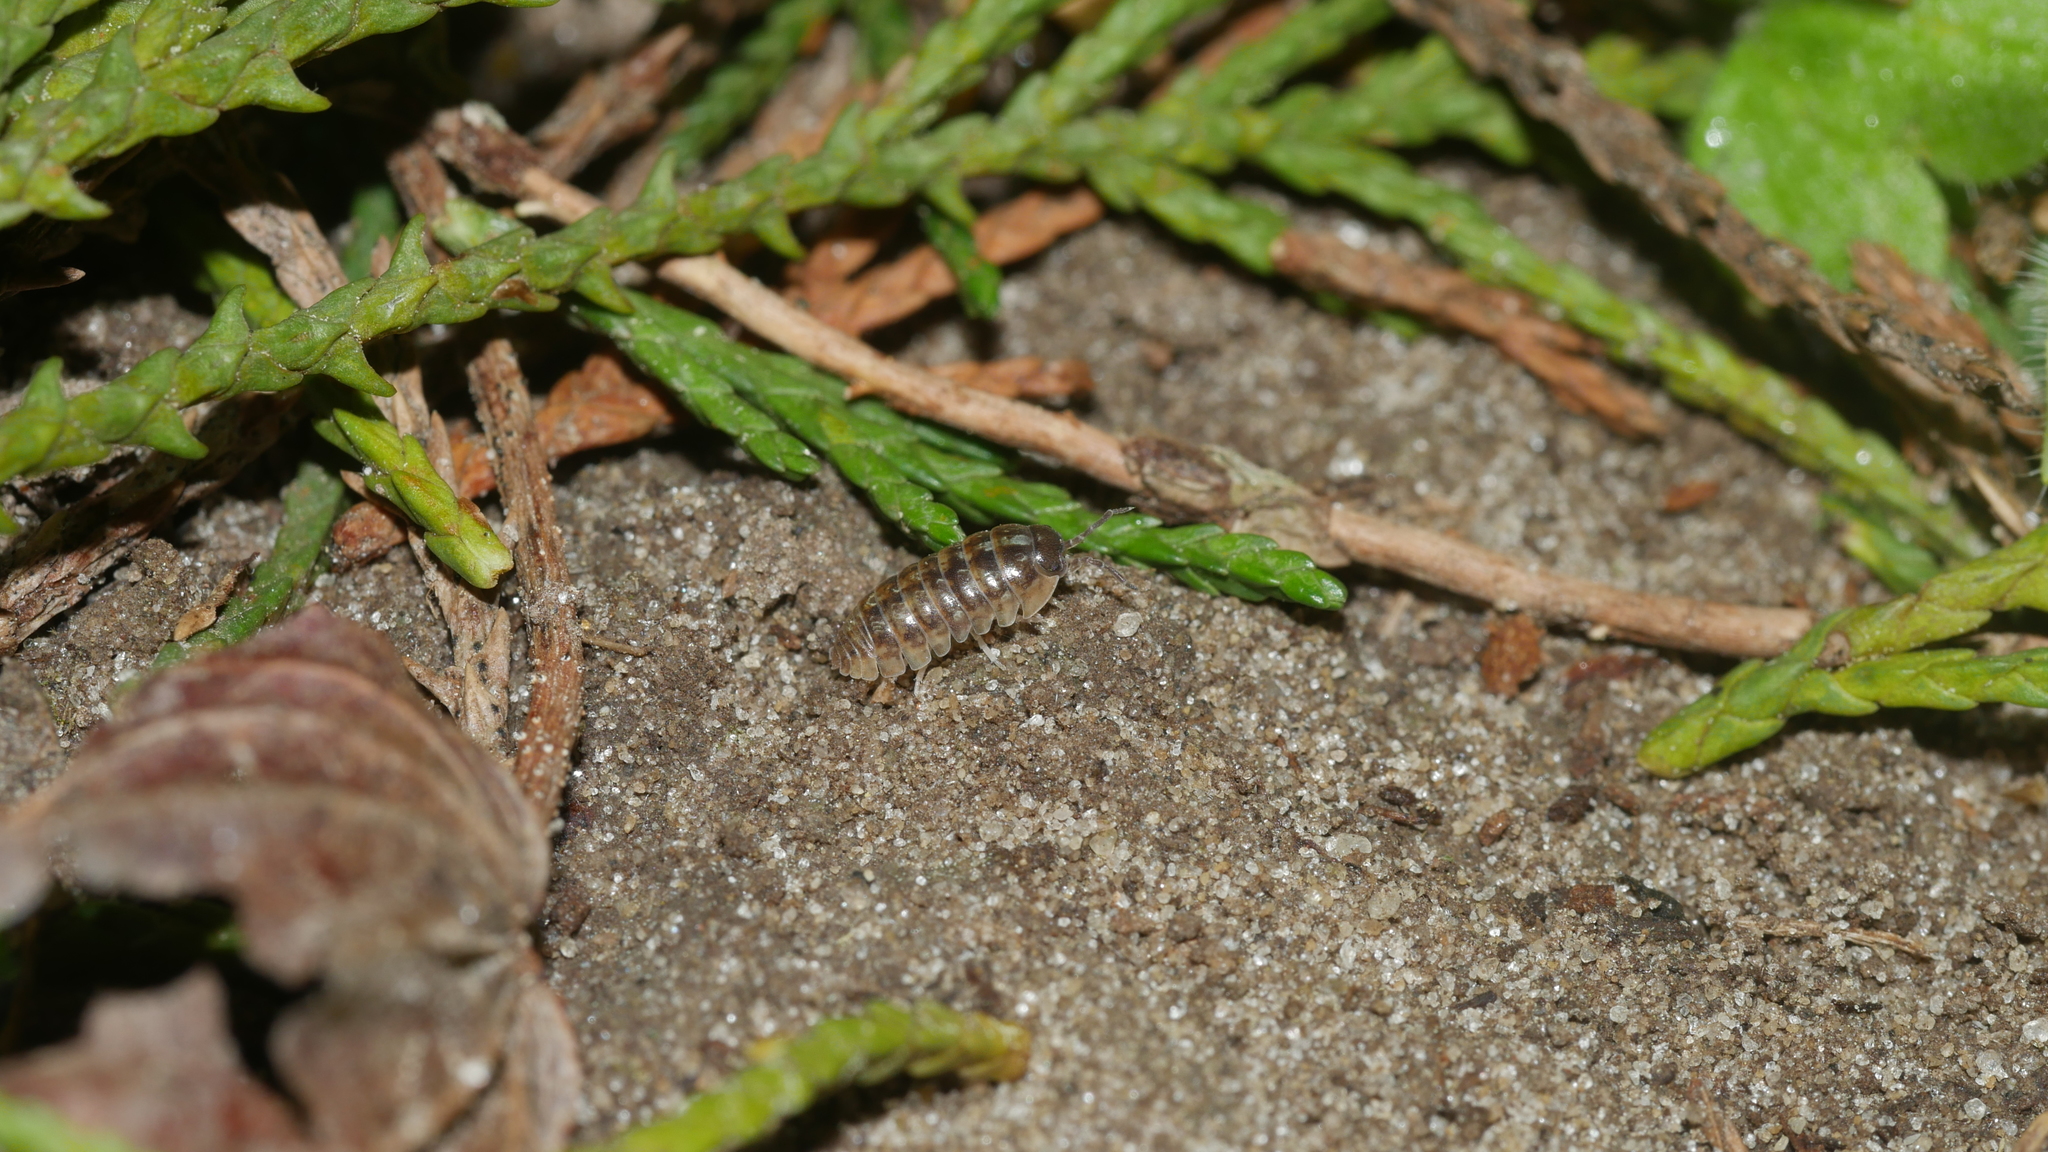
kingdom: Animalia
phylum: Arthropoda
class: Malacostraca
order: Isopoda
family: Armadillidiidae
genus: Armadillidium
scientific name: Armadillidium vulgare
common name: Common pill woodlouse
